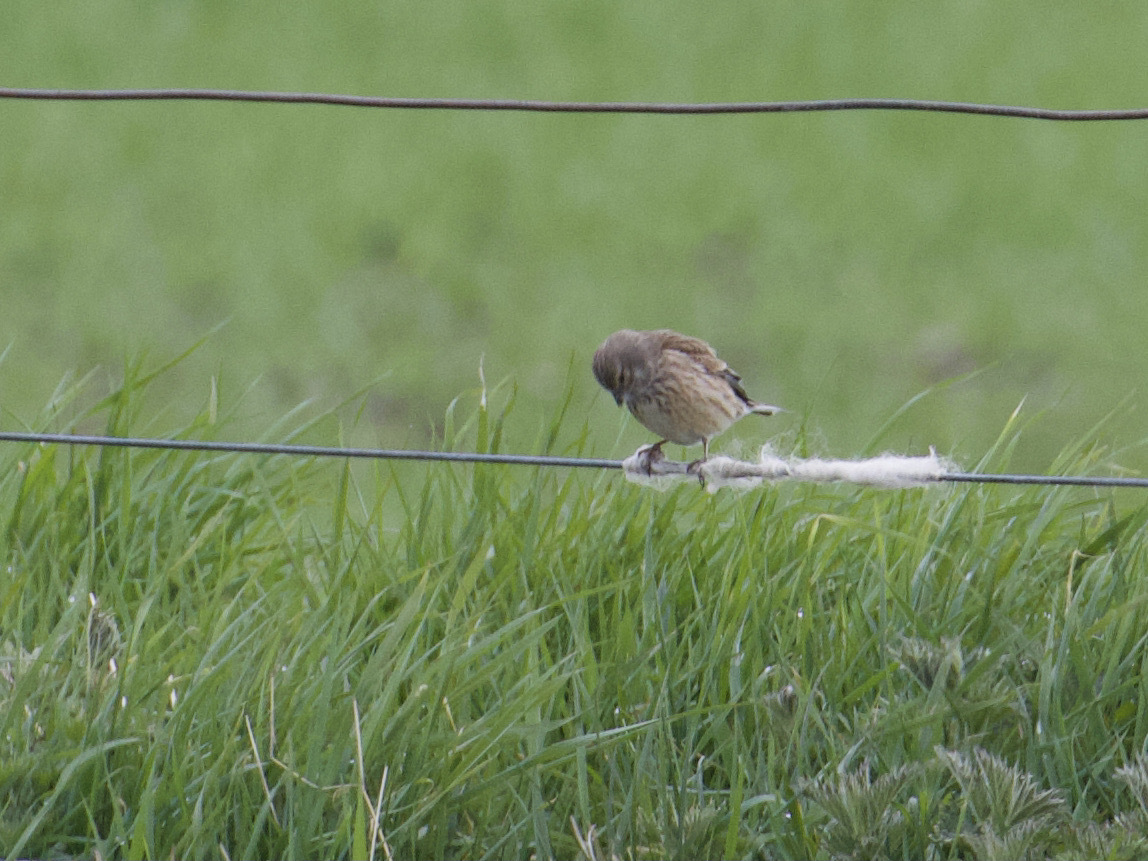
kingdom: Animalia
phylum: Chordata
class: Aves
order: Passeriformes
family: Fringillidae
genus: Linaria
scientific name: Linaria cannabina
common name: Common linnet
